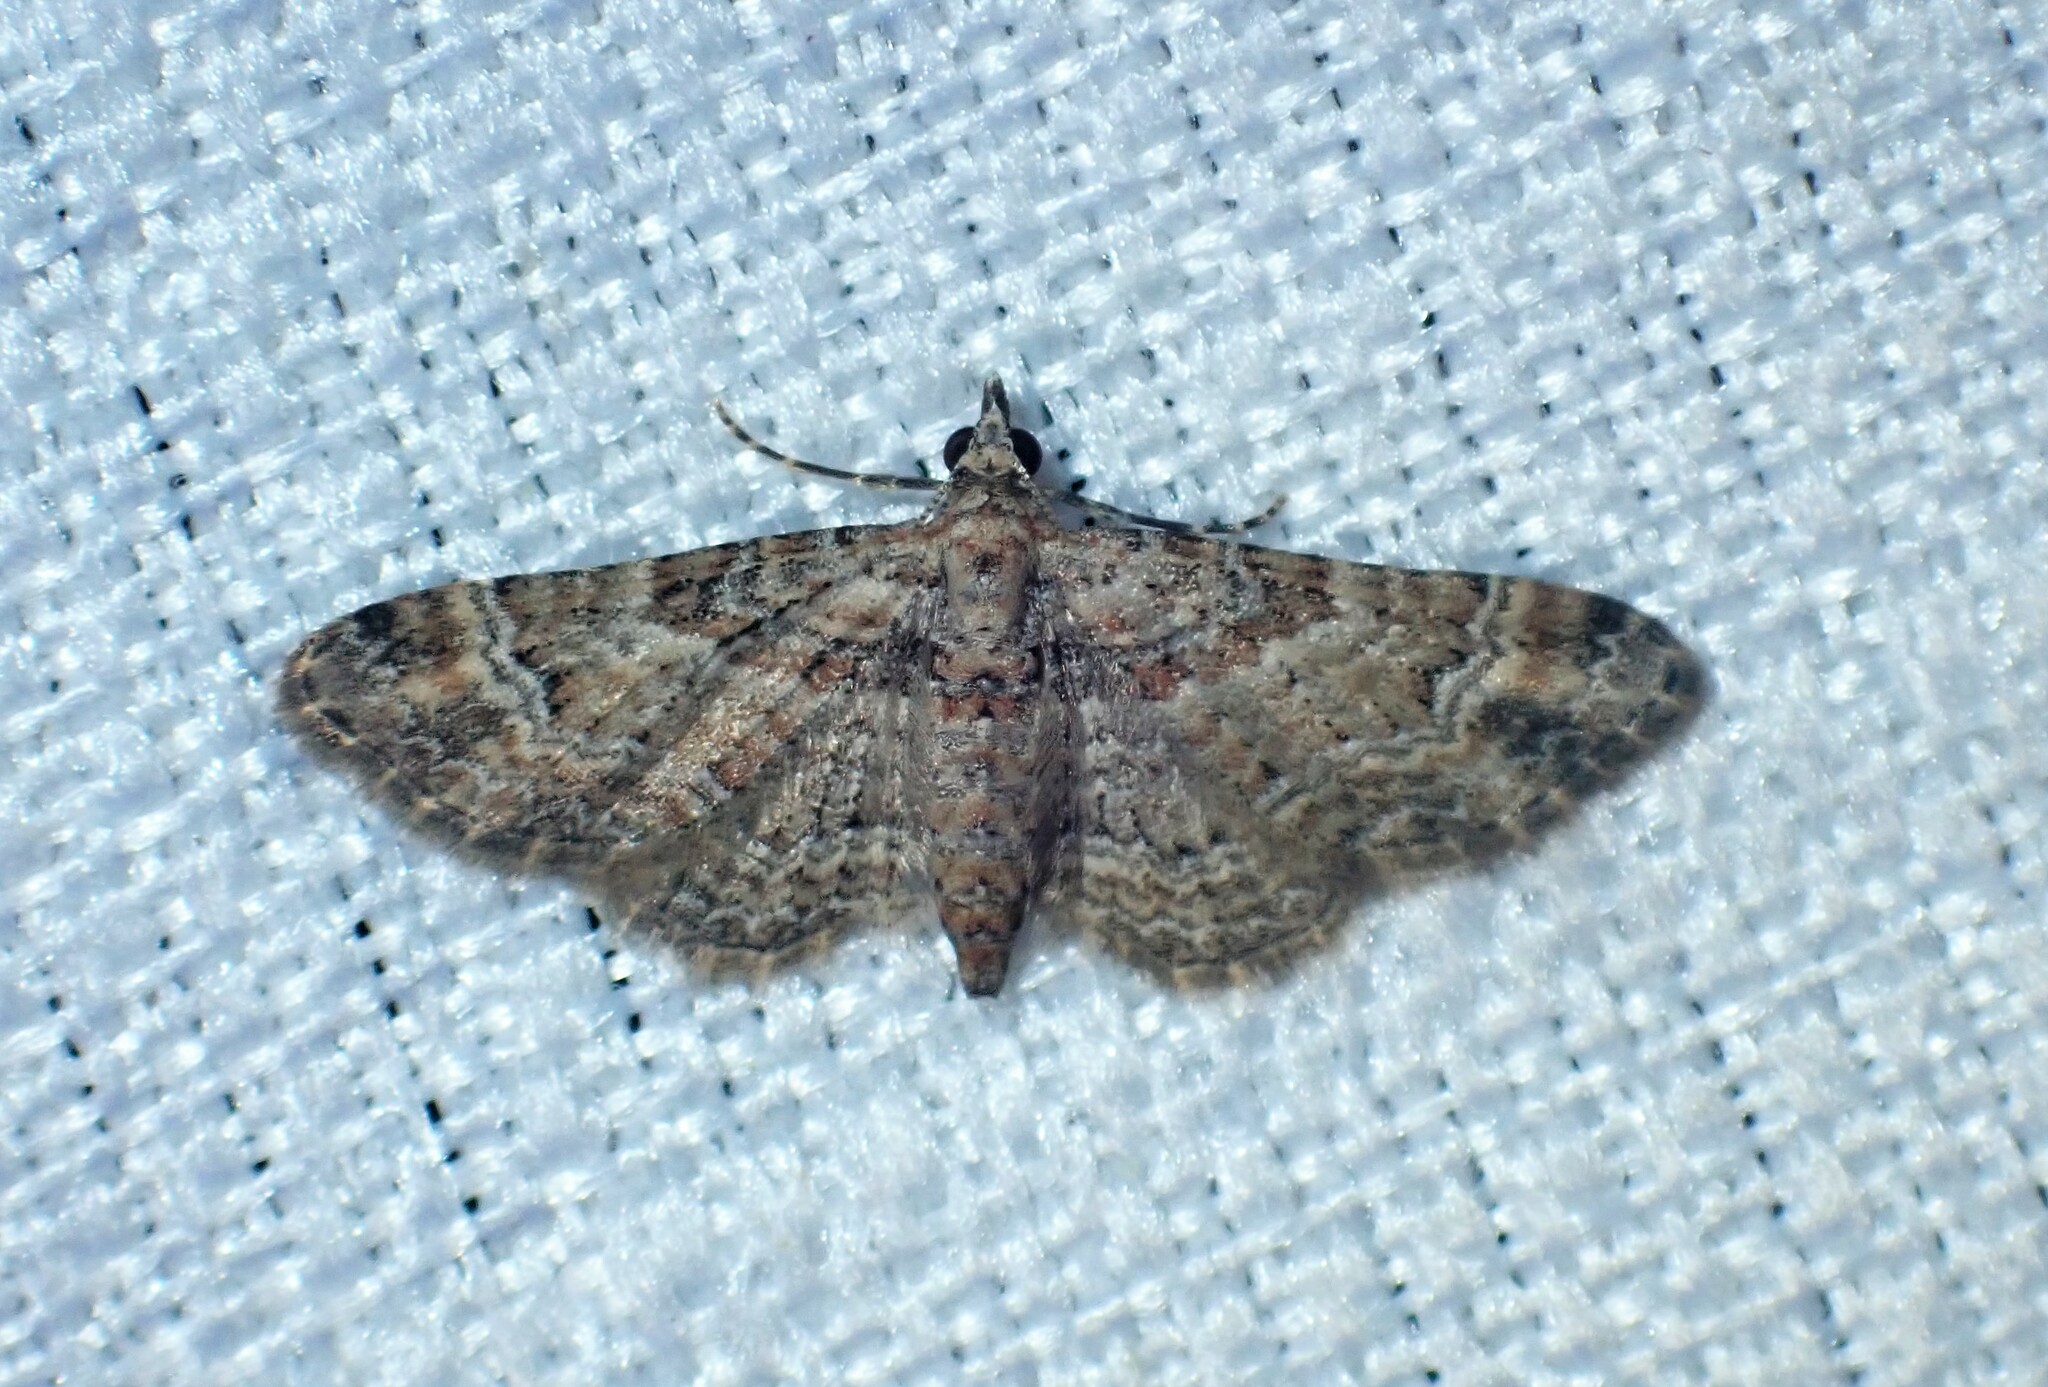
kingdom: Animalia
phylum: Arthropoda
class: Insecta
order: Lepidoptera
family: Geometridae
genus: Gymnoscelis
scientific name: Gymnoscelis rufifasciata
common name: Double-striped pug
